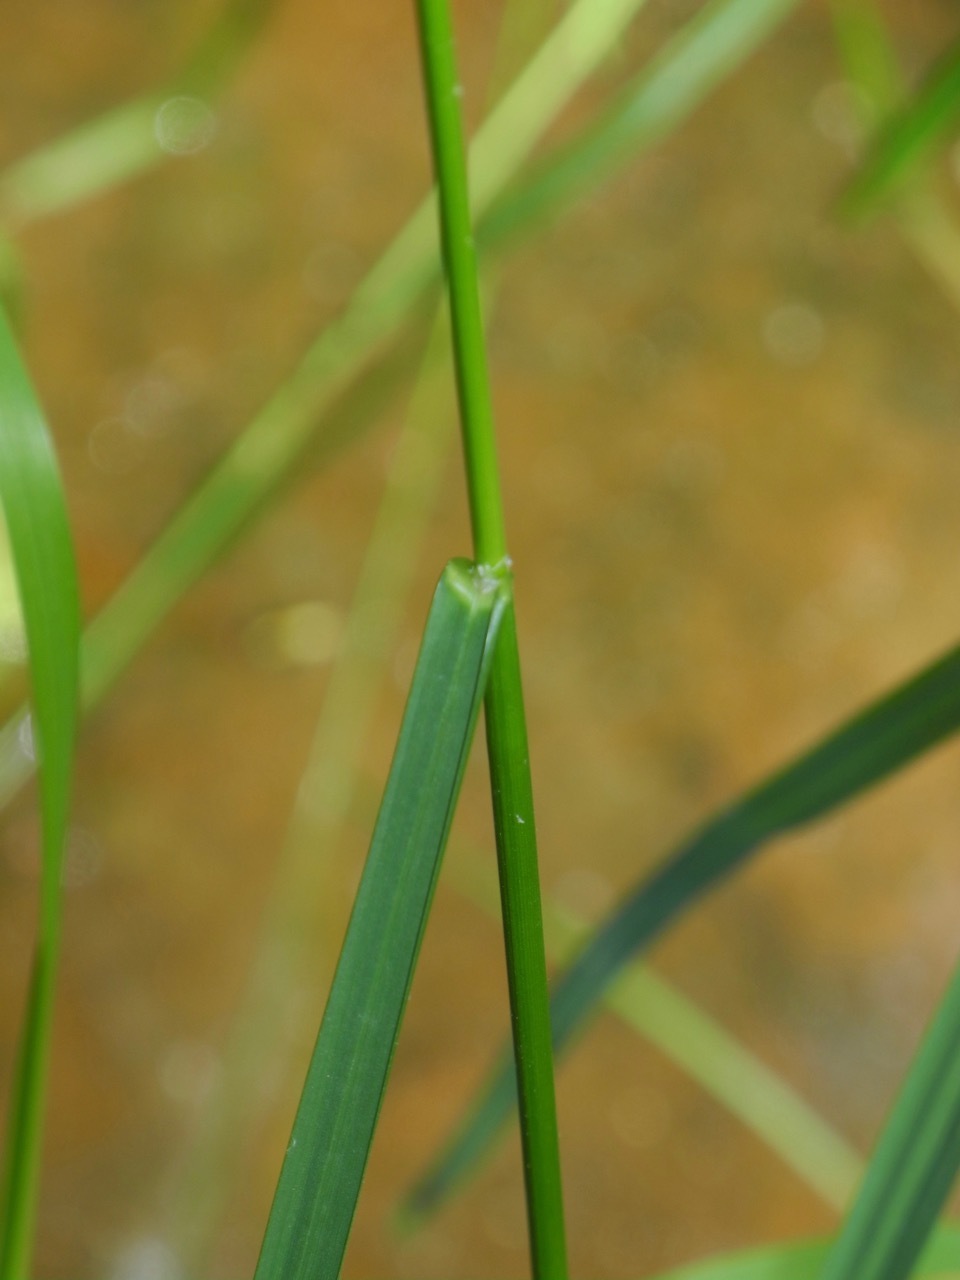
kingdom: Plantae
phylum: Tracheophyta
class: Liliopsida
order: Poales
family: Poaceae
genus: Glyceria
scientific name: Glyceria striata
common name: Fowl manna grass
